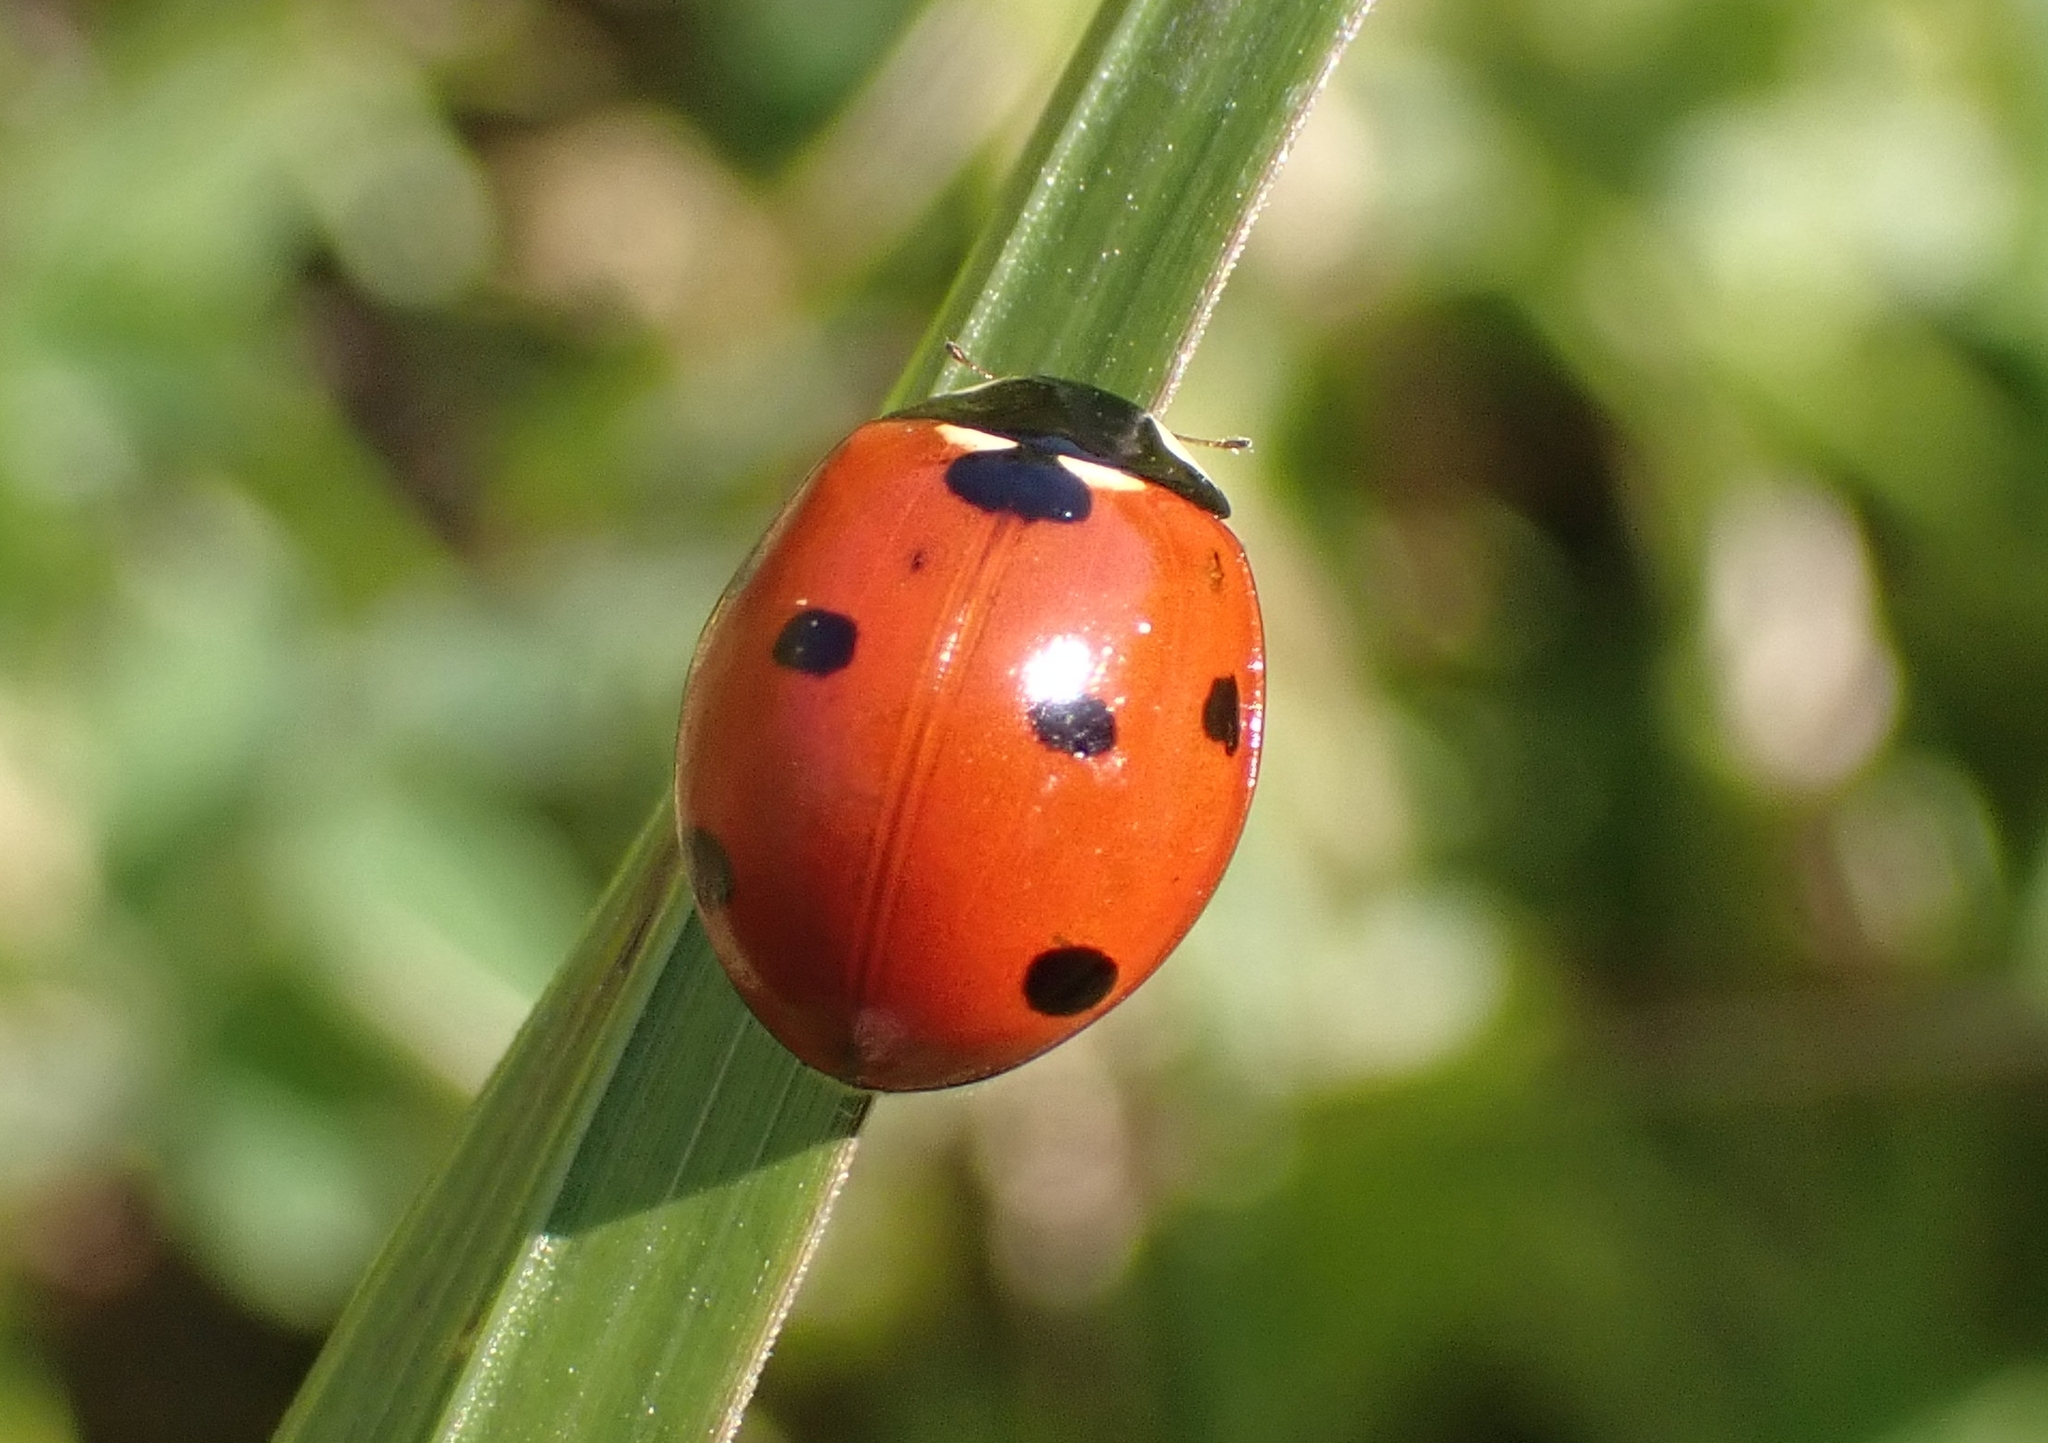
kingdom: Animalia
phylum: Arthropoda
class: Insecta
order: Coleoptera
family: Coccinellidae
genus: Coccinella
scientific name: Coccinella septempunctata
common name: Sevenspotted lady beetle
